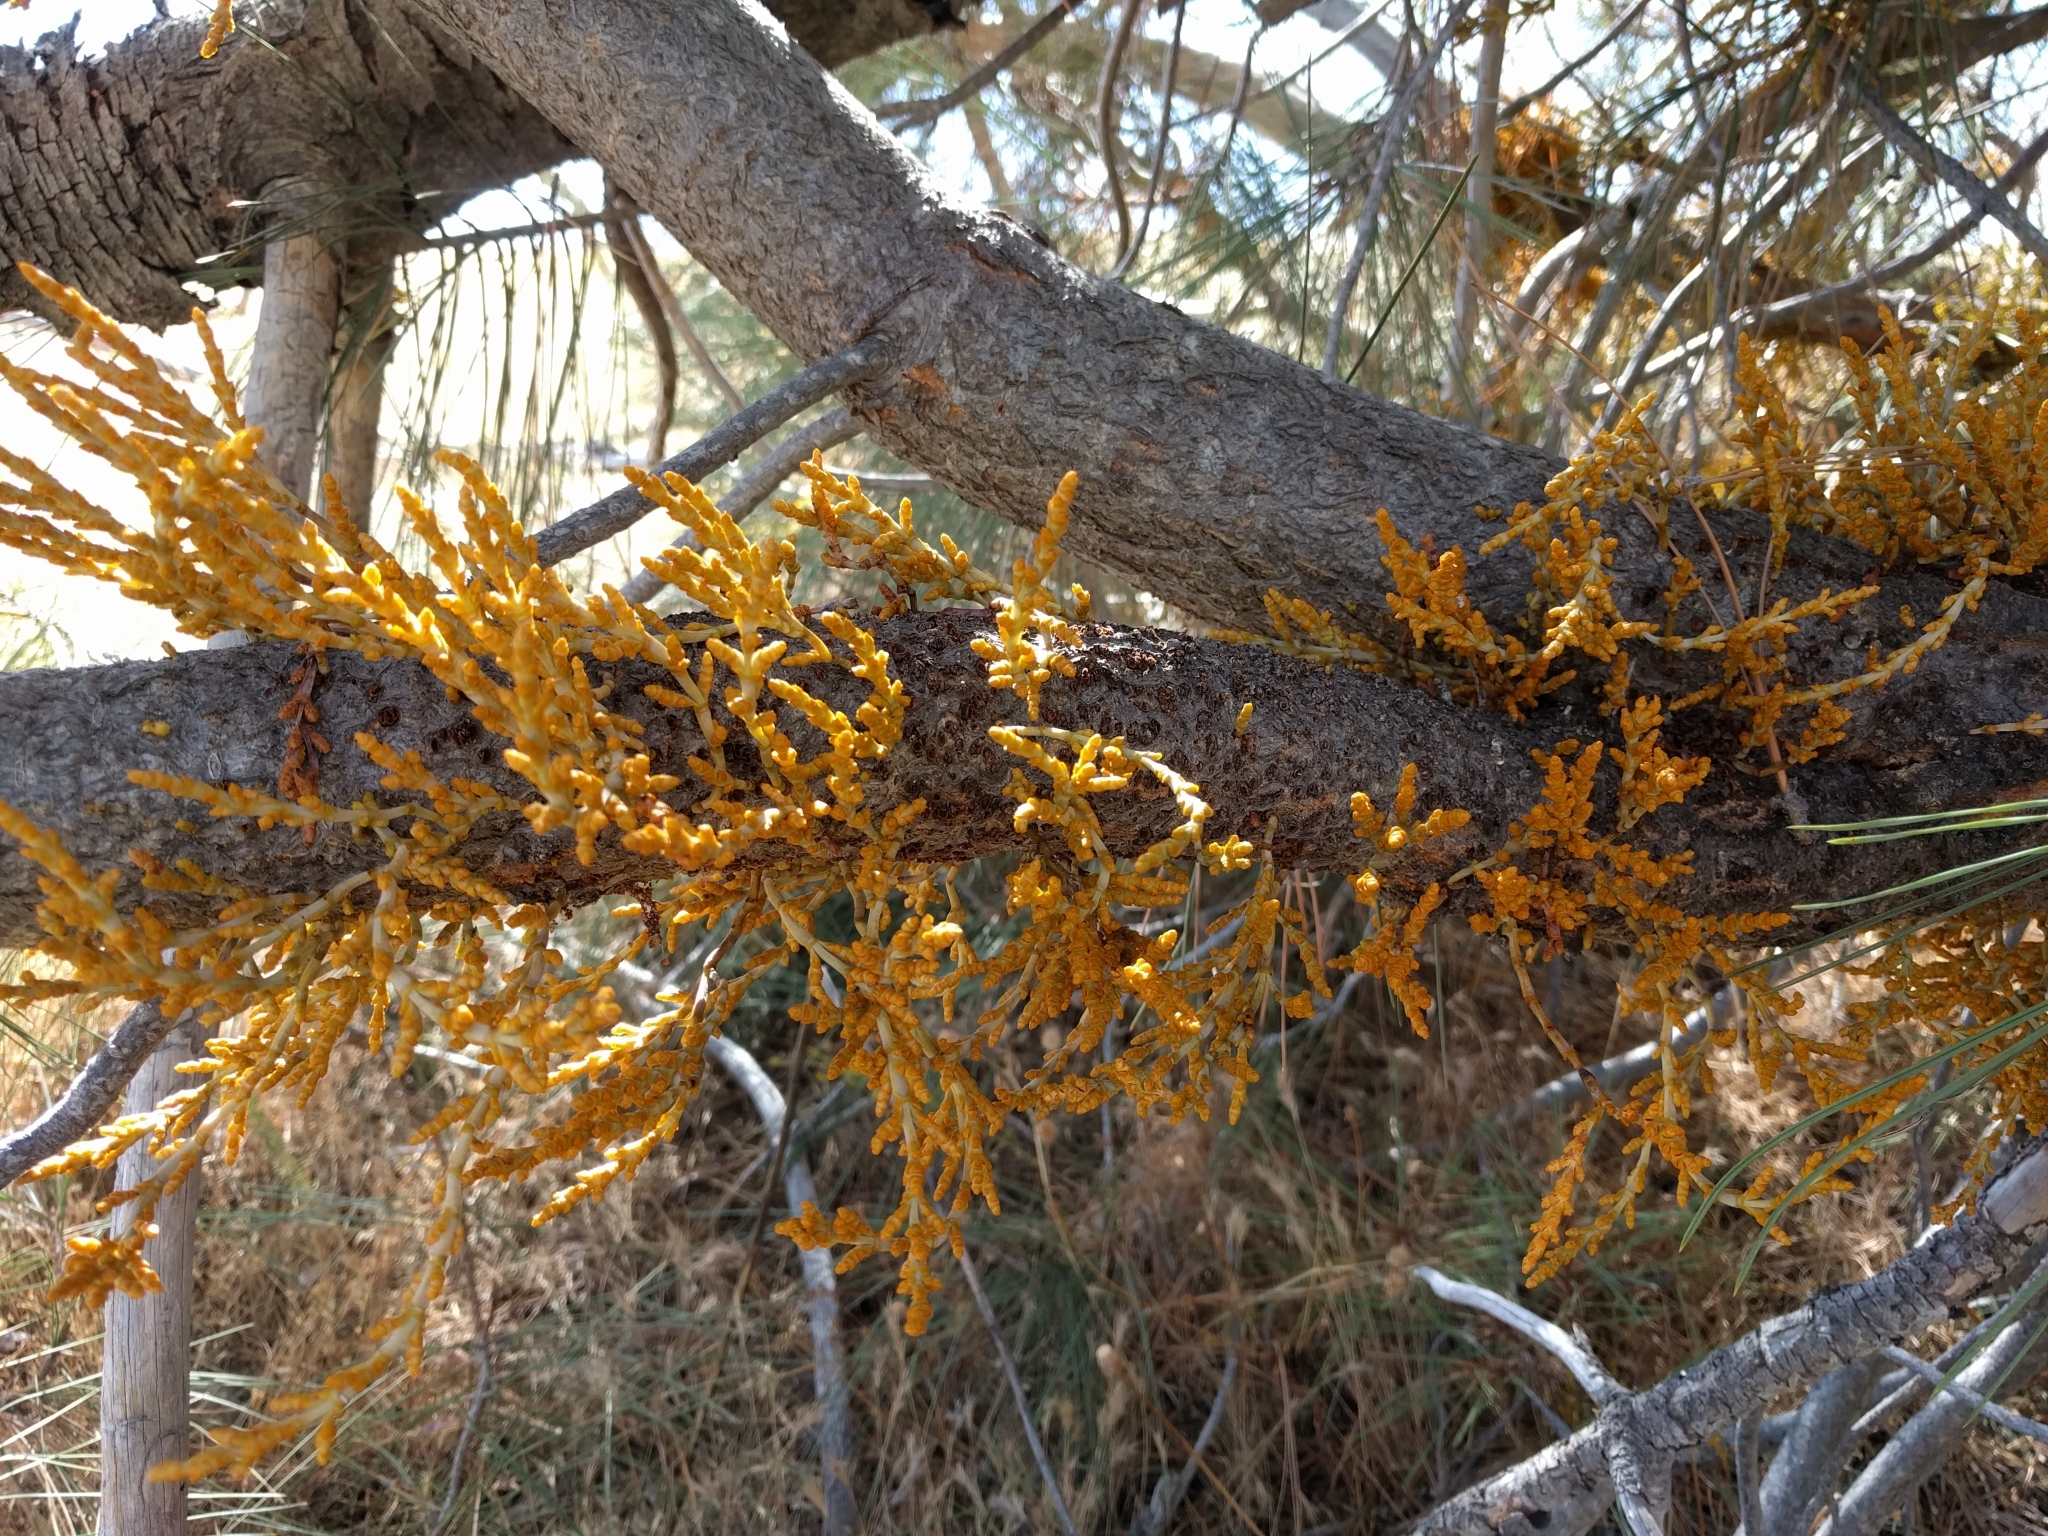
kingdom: Plantae
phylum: Tracheophyta
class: Magnoliopsida
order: Santalales
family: Viscaceae
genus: Arceuthobium
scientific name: Arceuthobium campylopodum
